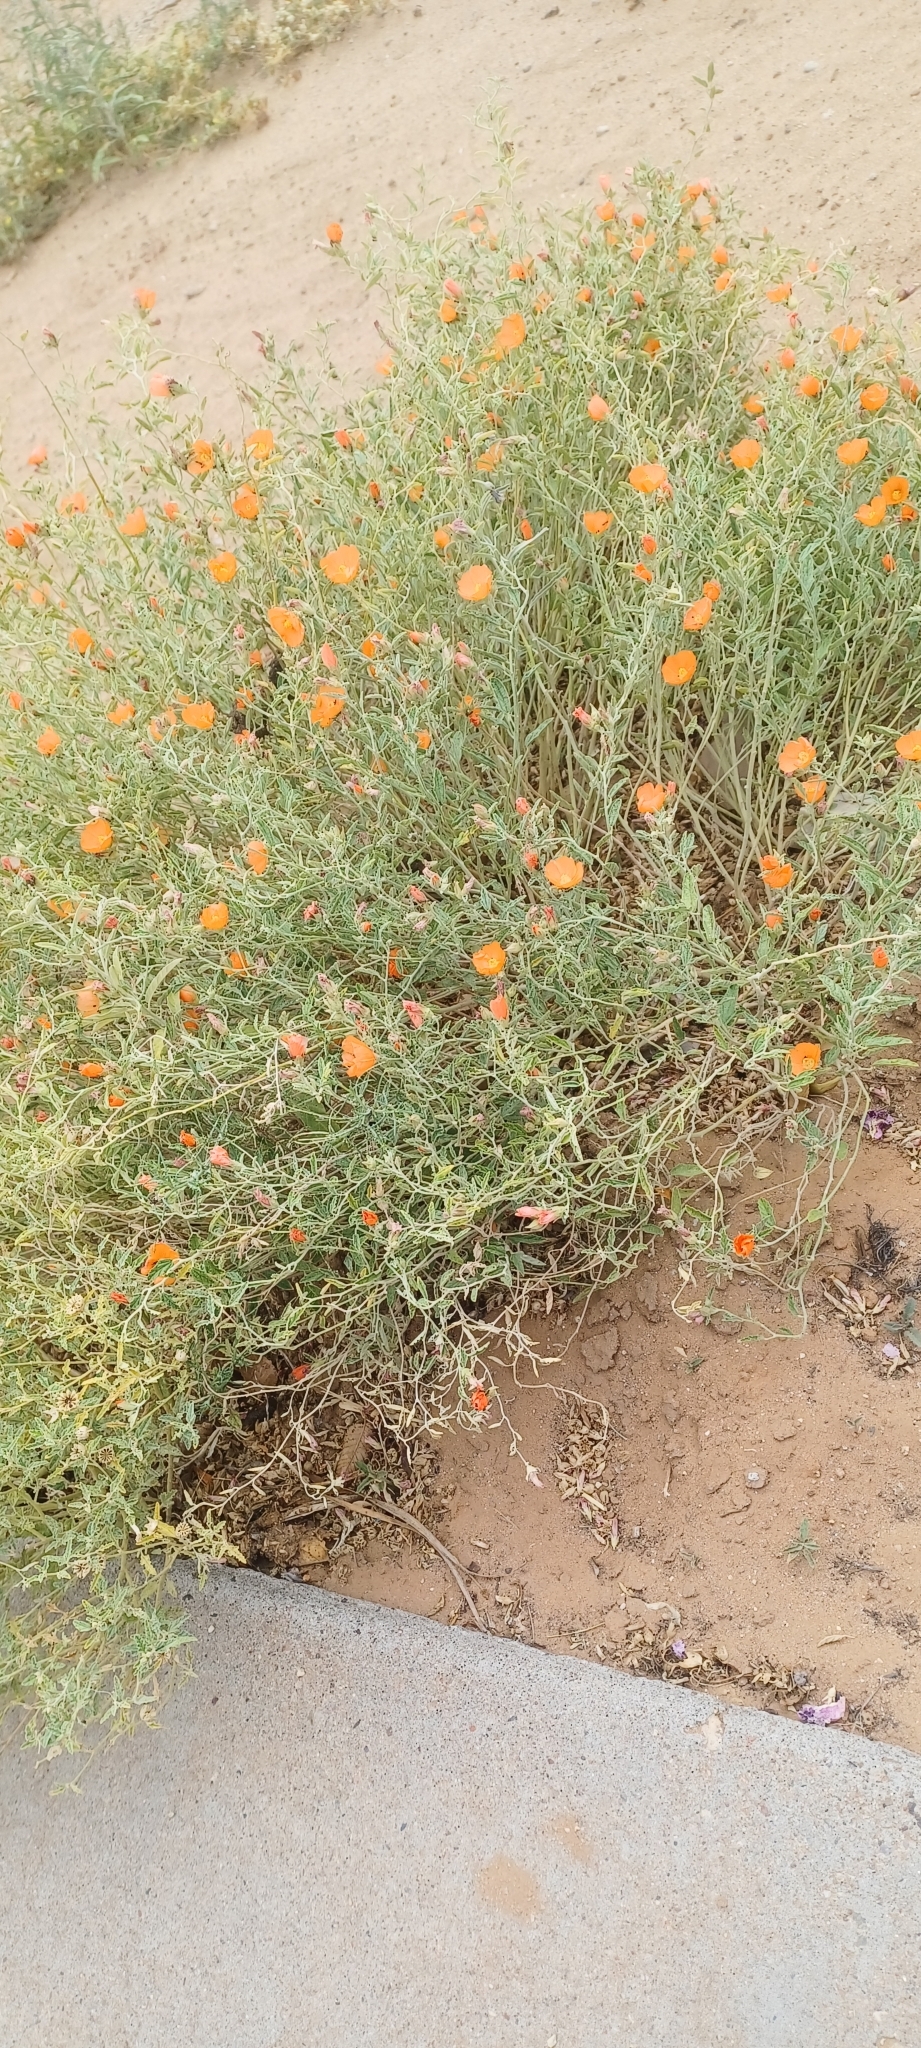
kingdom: Plantae
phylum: Tracheophyta
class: Magnoliopsida
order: Malvales
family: Malvaceae
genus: Sphaeralcea
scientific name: Sphaeralcea hastulata
